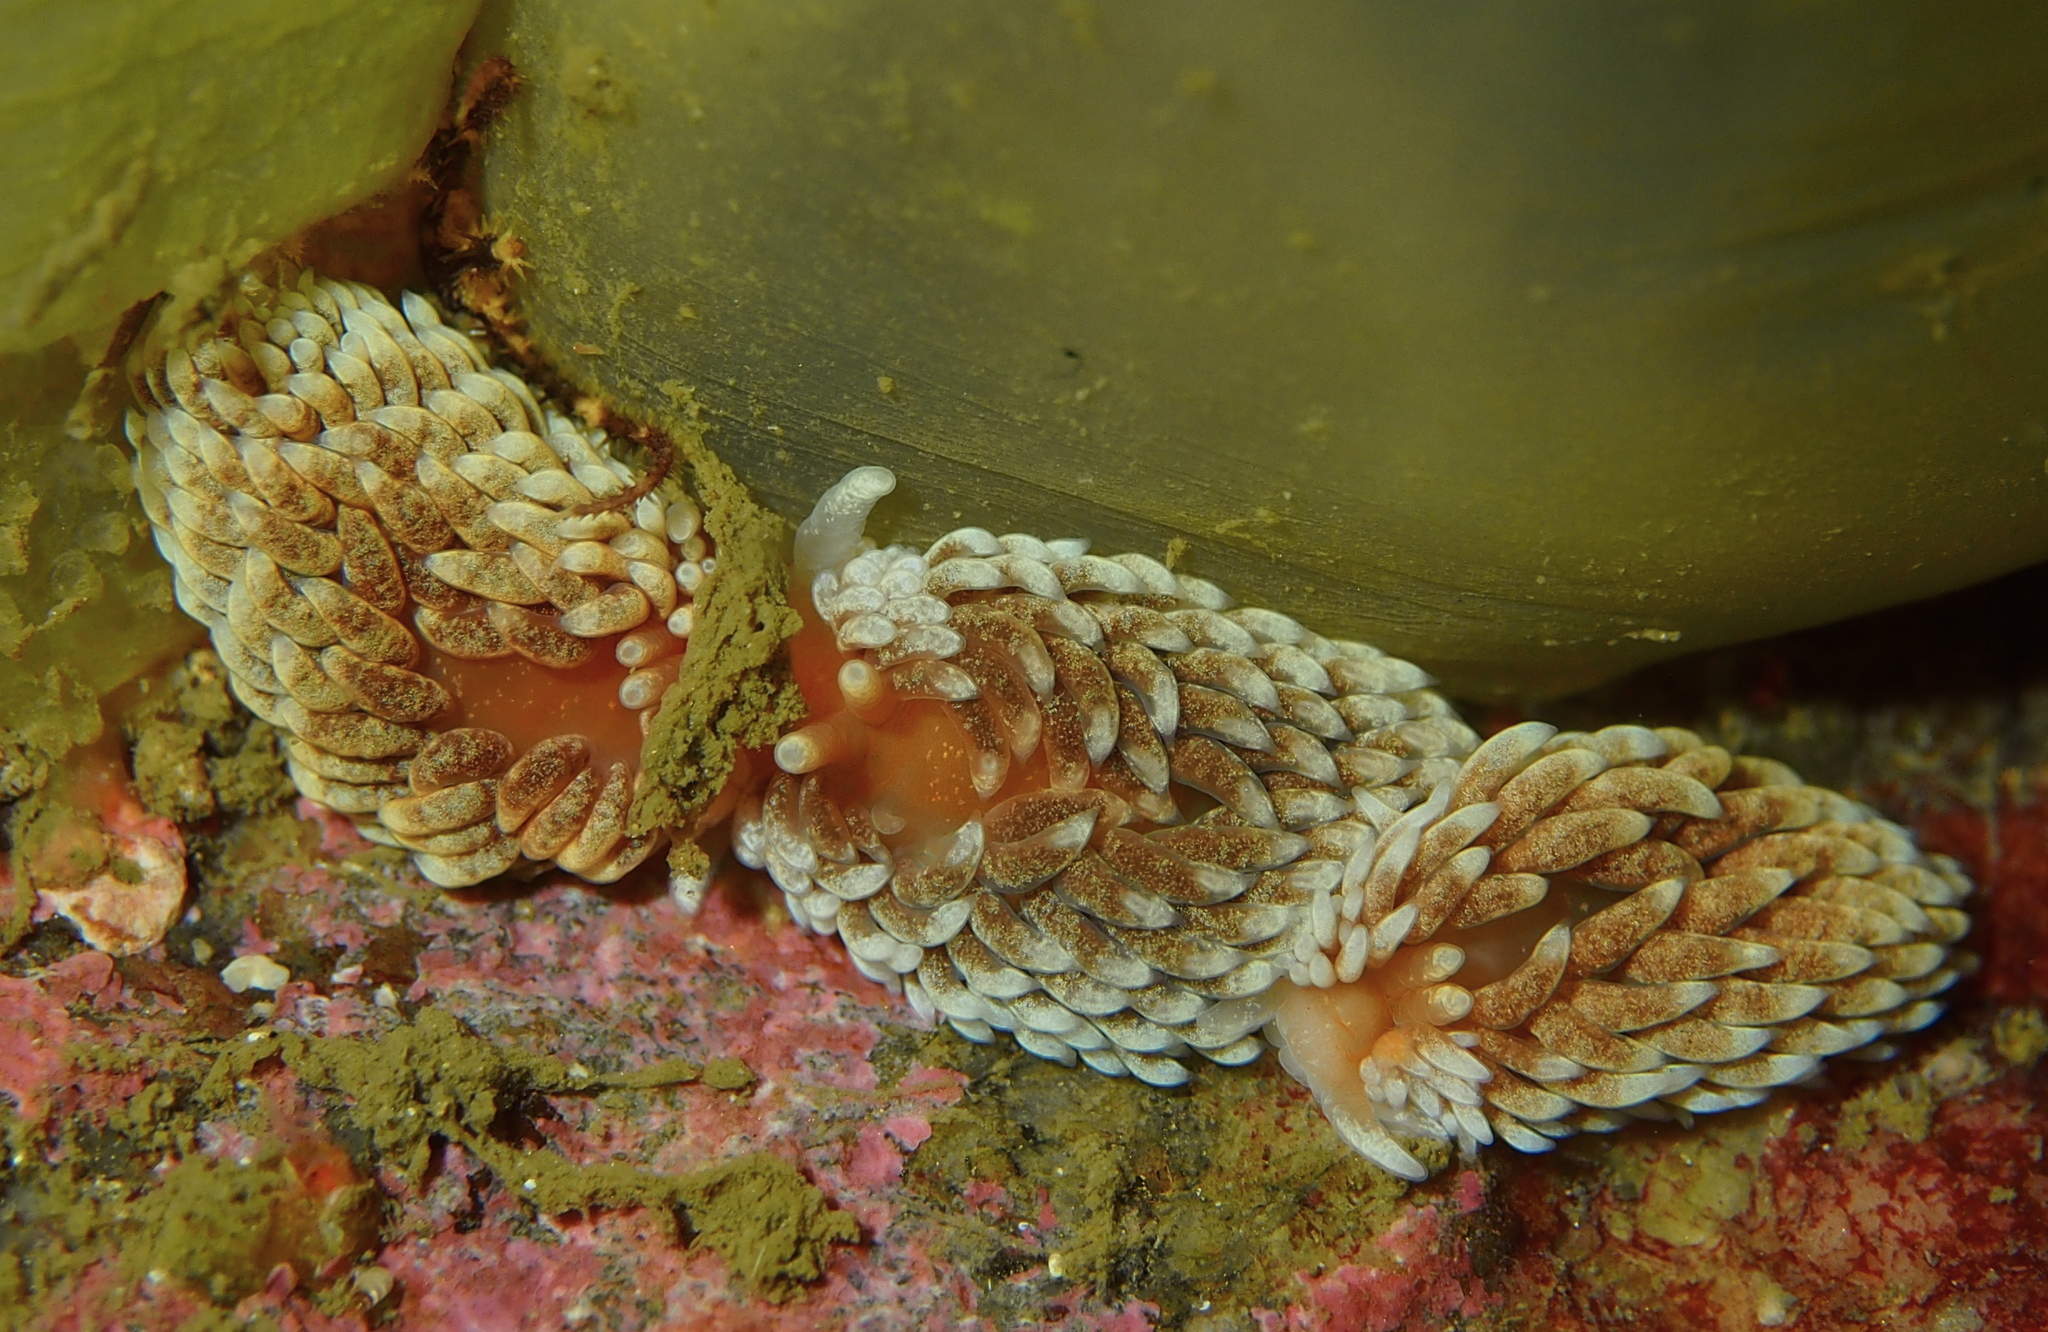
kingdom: Animalia
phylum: Mollusca
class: Gastropoda
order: Nudibranchia
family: Aeolidiidae
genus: Aeolidiella
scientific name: Aeolidiella glauca
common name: Orange-brown aeolid
